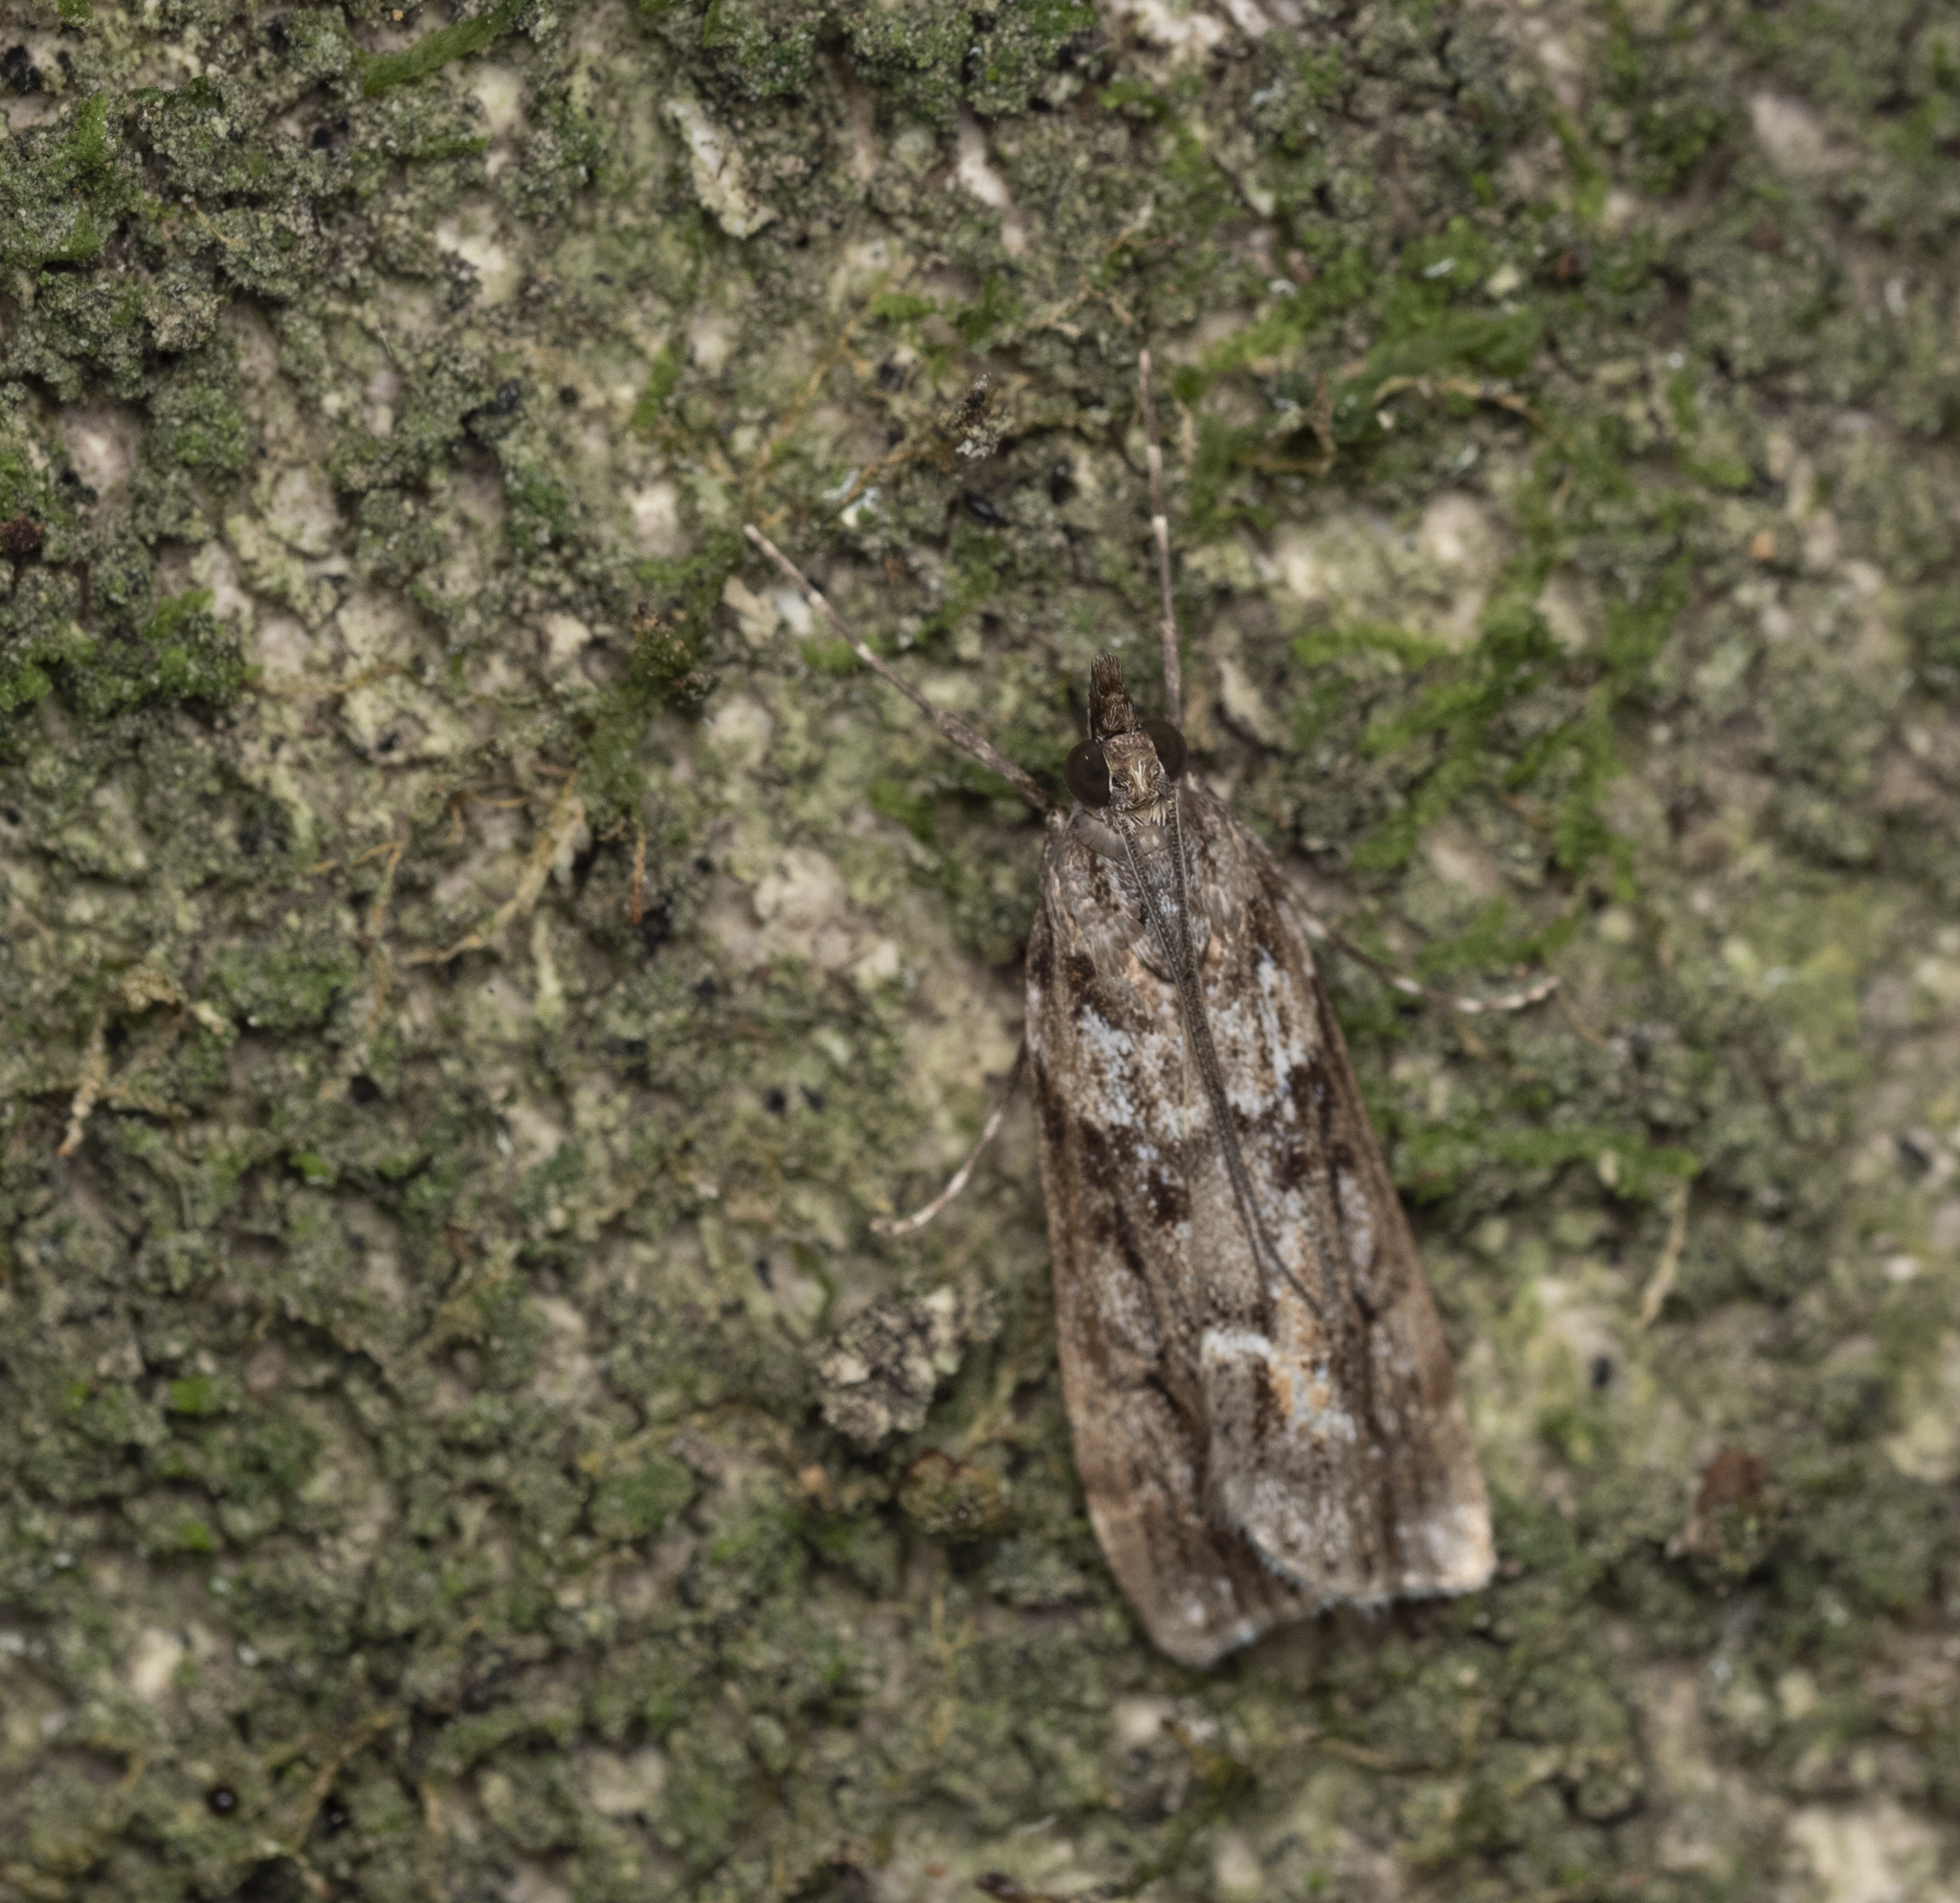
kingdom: Animalia
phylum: Arthropoda
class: Insecta
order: Lepidoptera
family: Crambidae
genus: Eudonia
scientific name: Eudonia submarginalis
